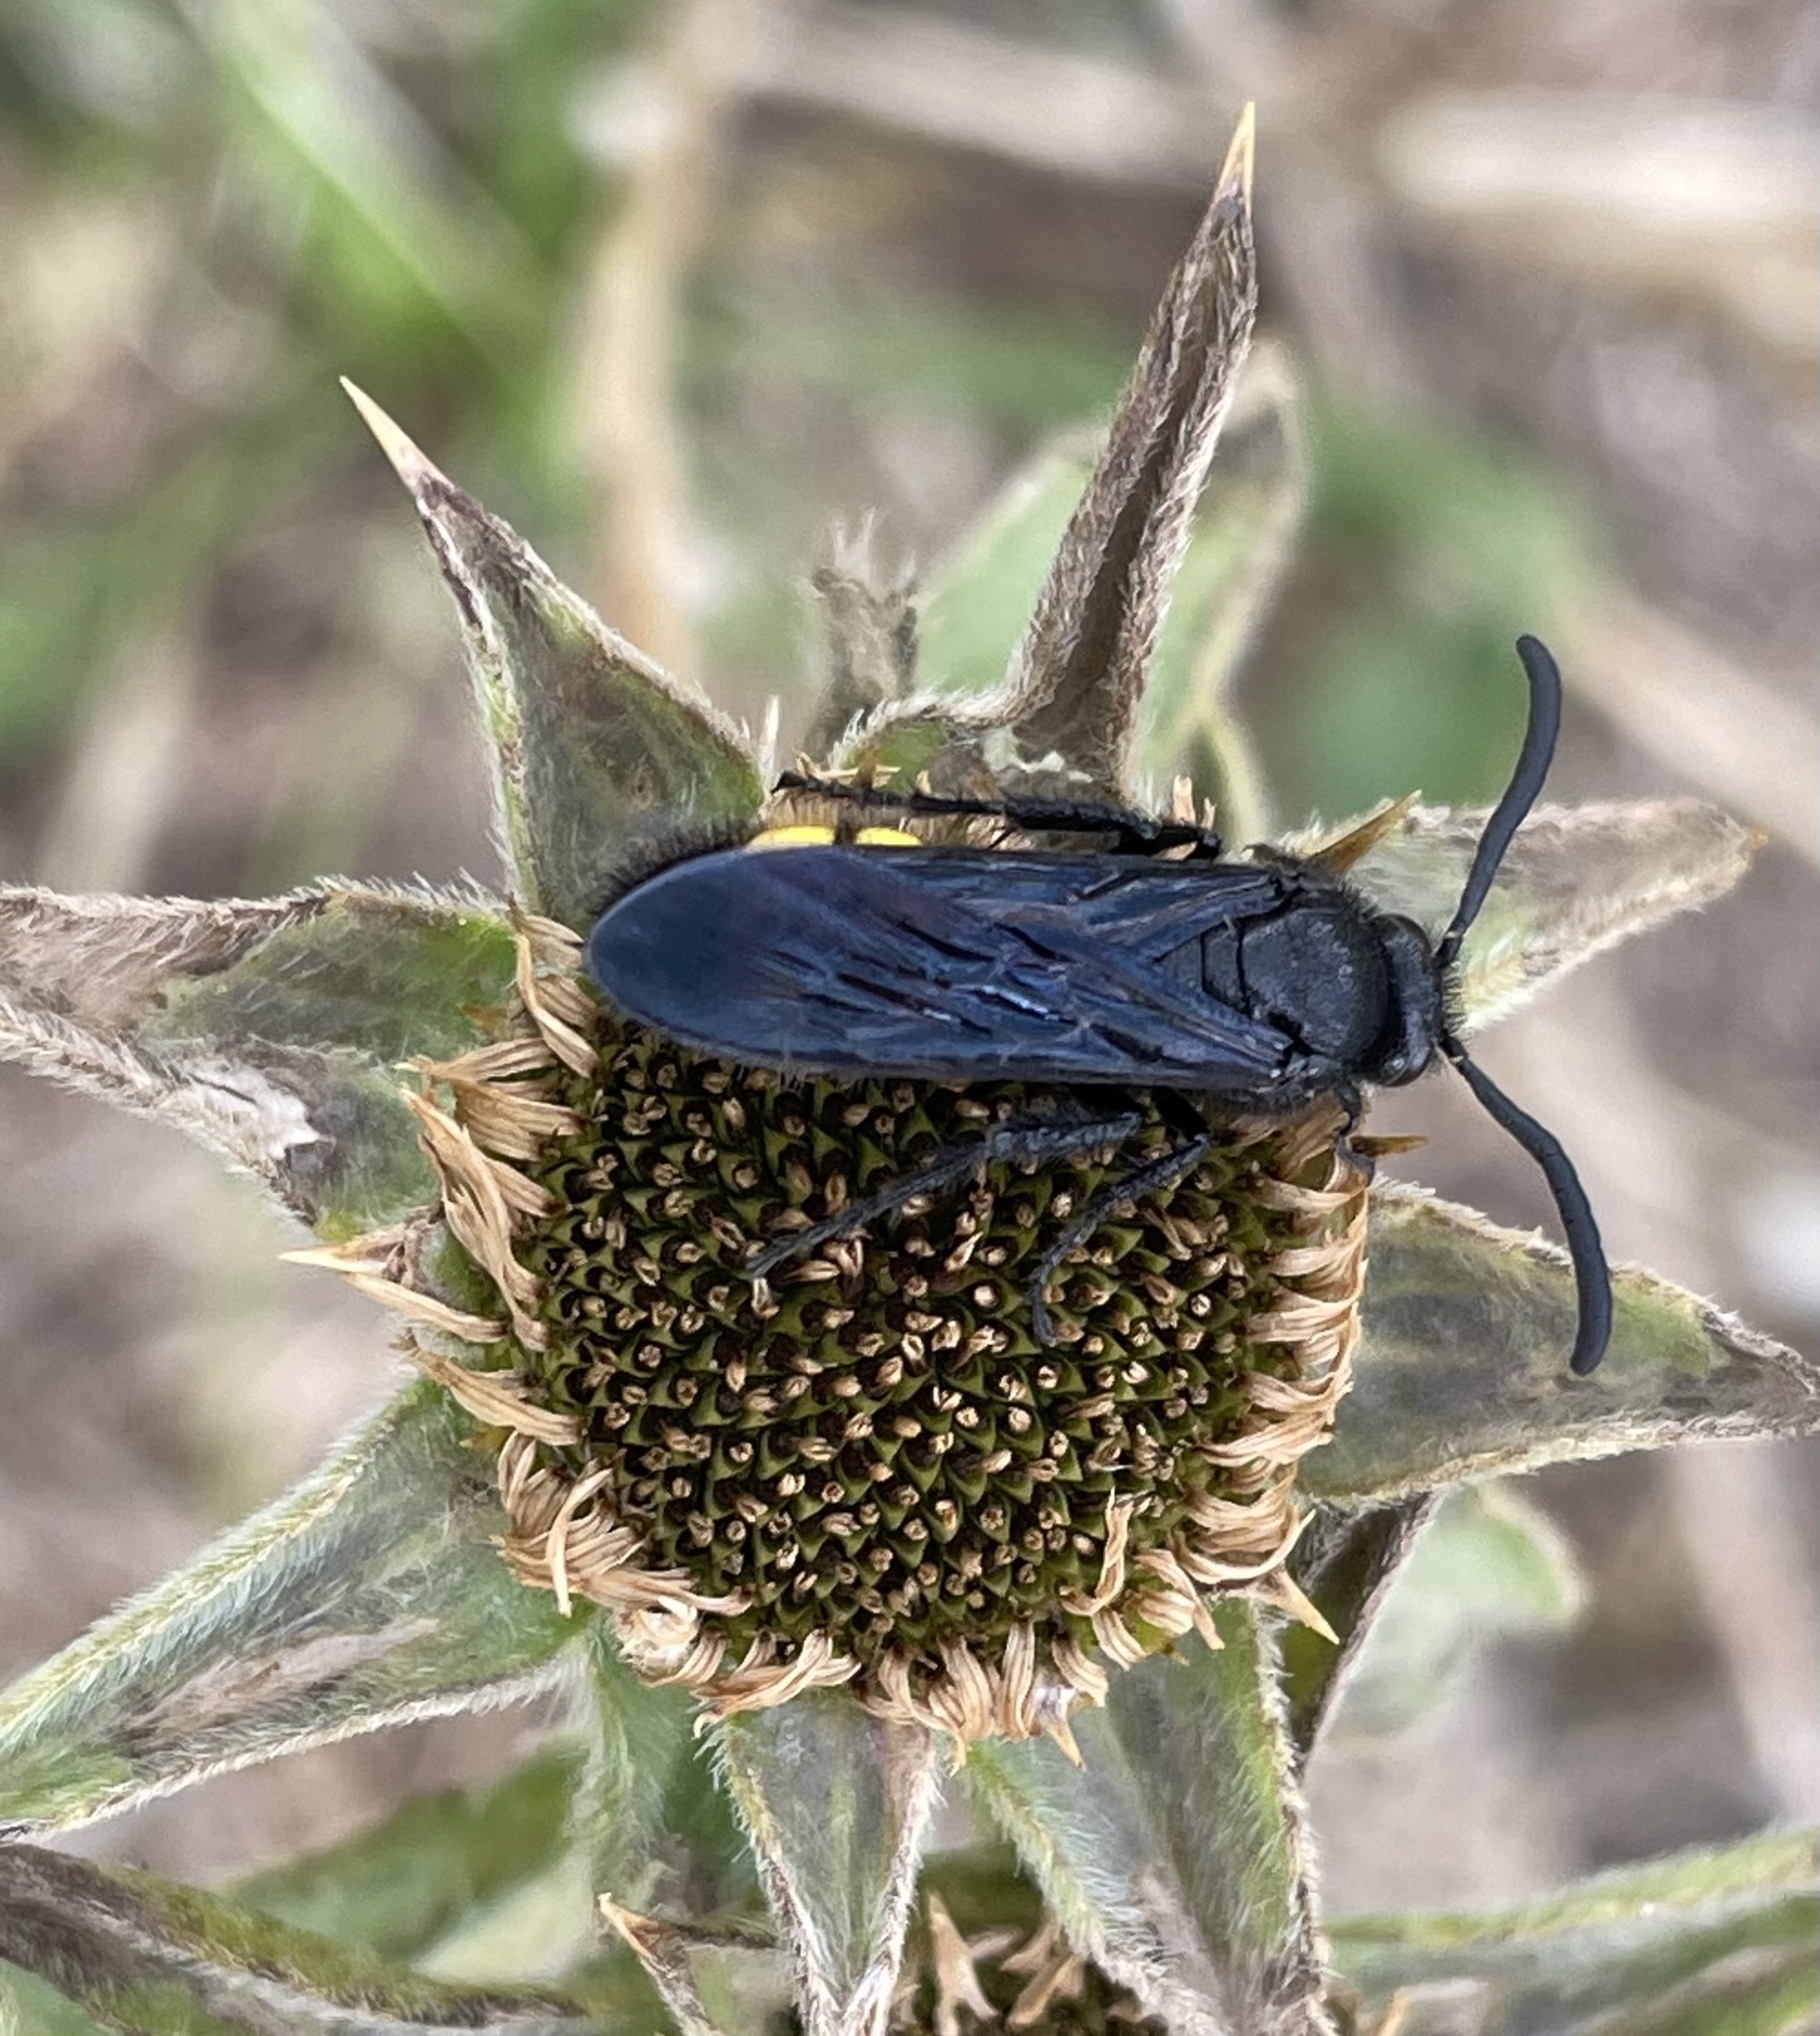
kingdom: Animalia
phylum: Arthropoda
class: Insecta
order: Hymenoptera
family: Scoliidae
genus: Scolia
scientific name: Scolia hirta
